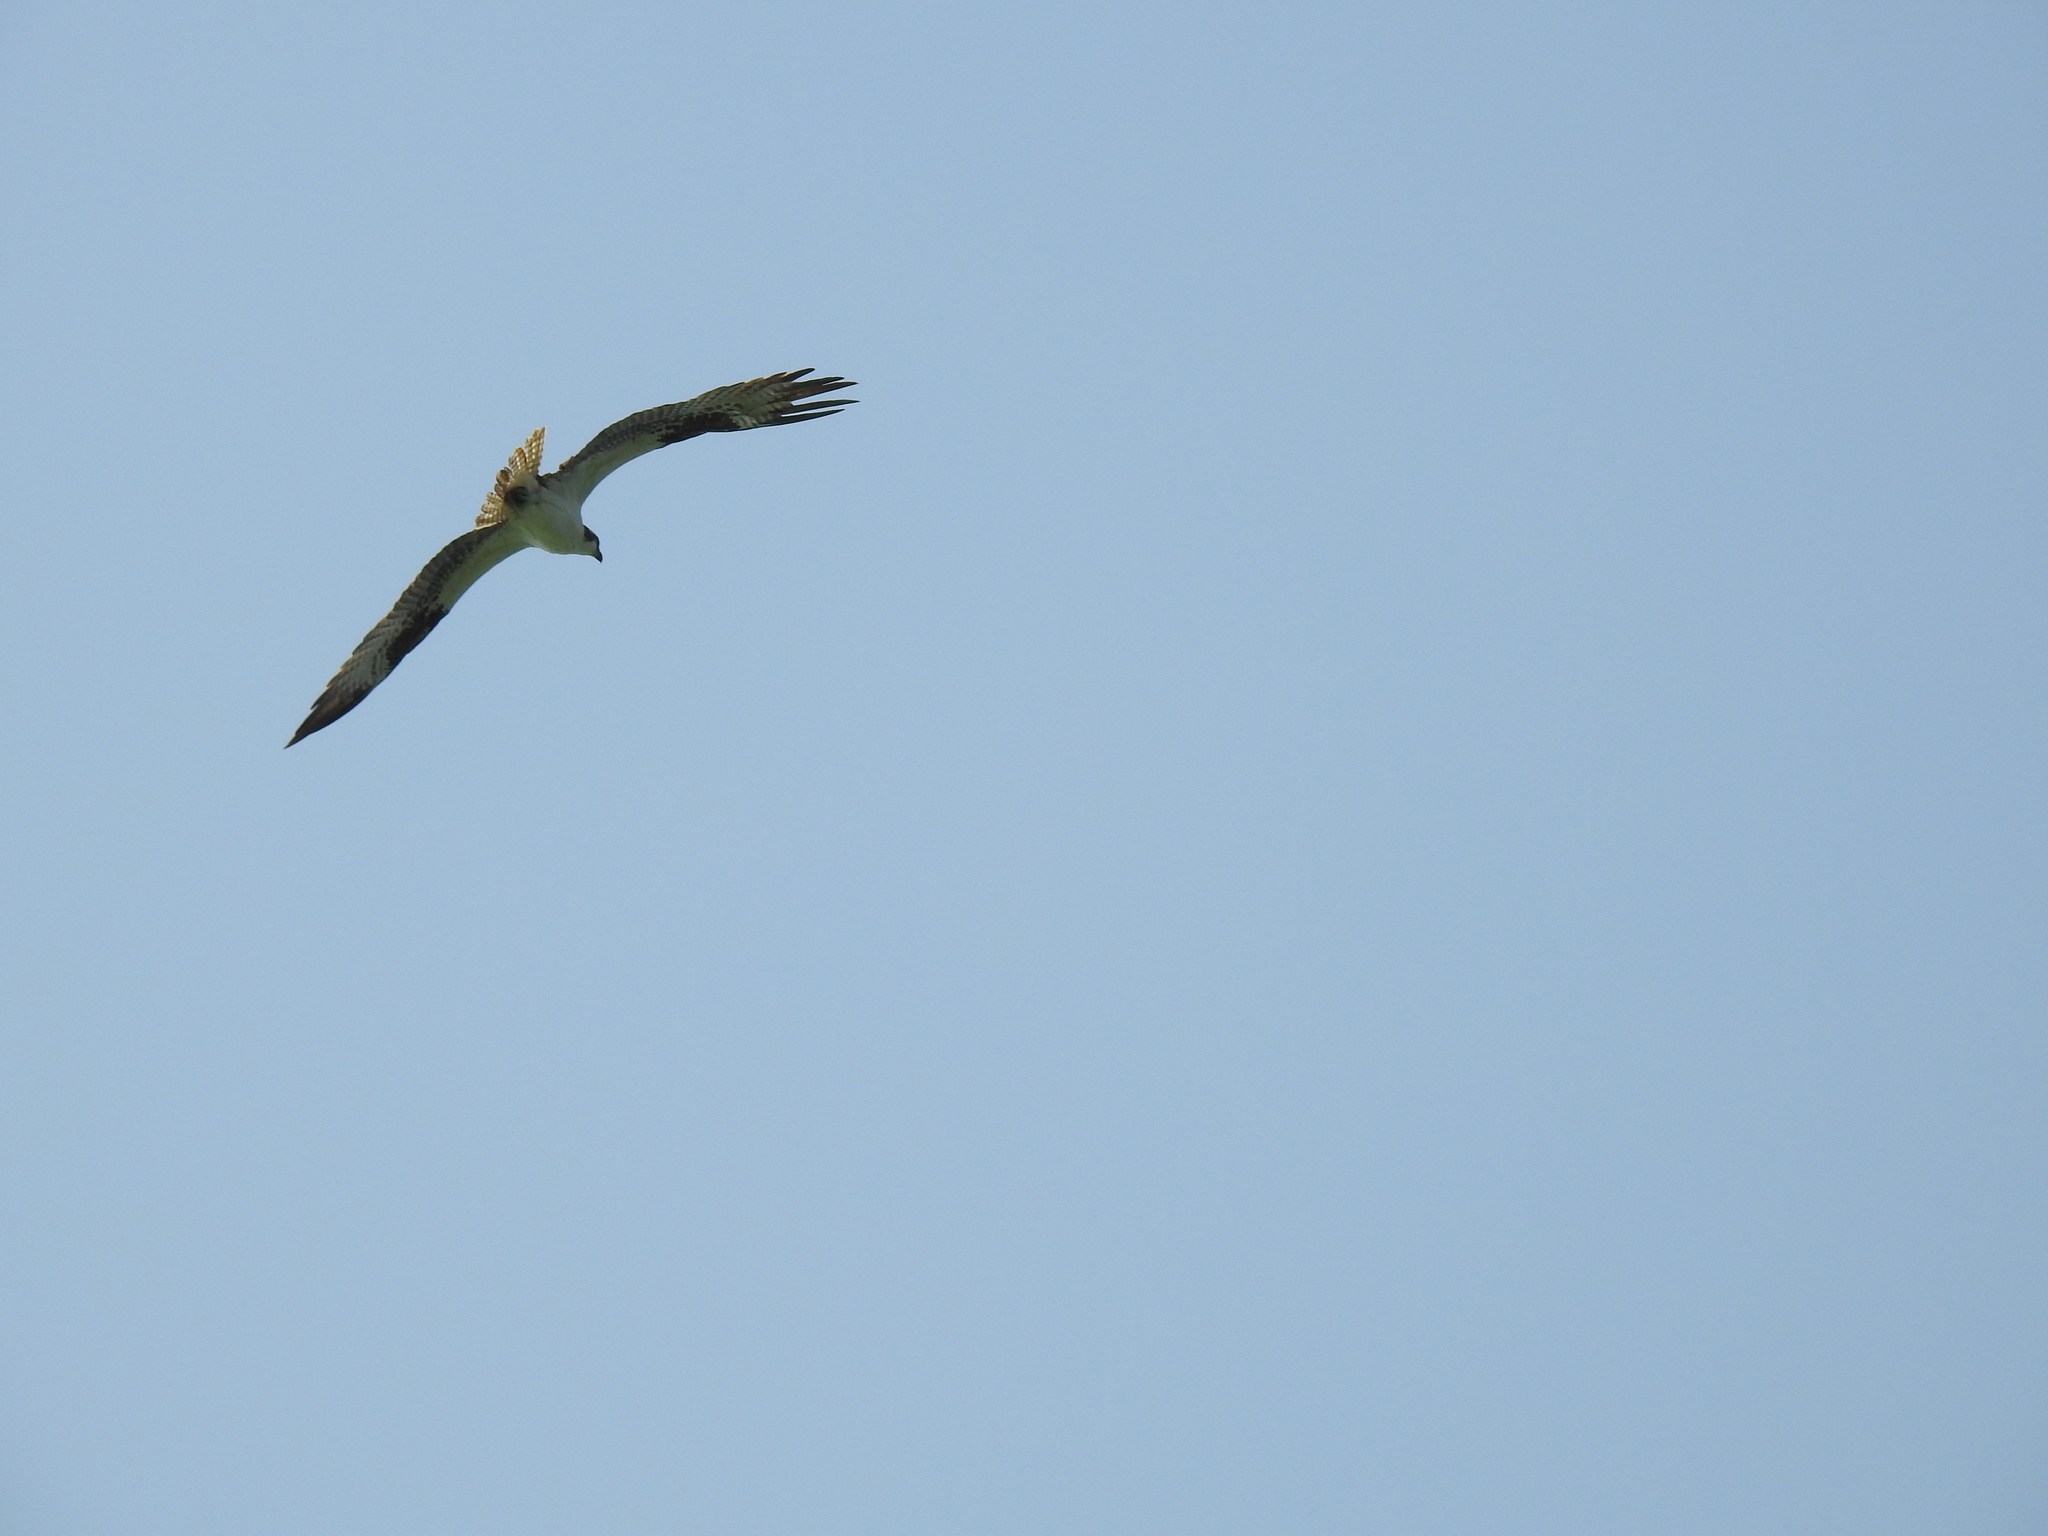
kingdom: Animalia
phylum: Chordata
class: Aves
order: Accipitriformes
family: Pandionidae
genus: Pandion
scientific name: Pandion haliaetus
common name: Osprey
